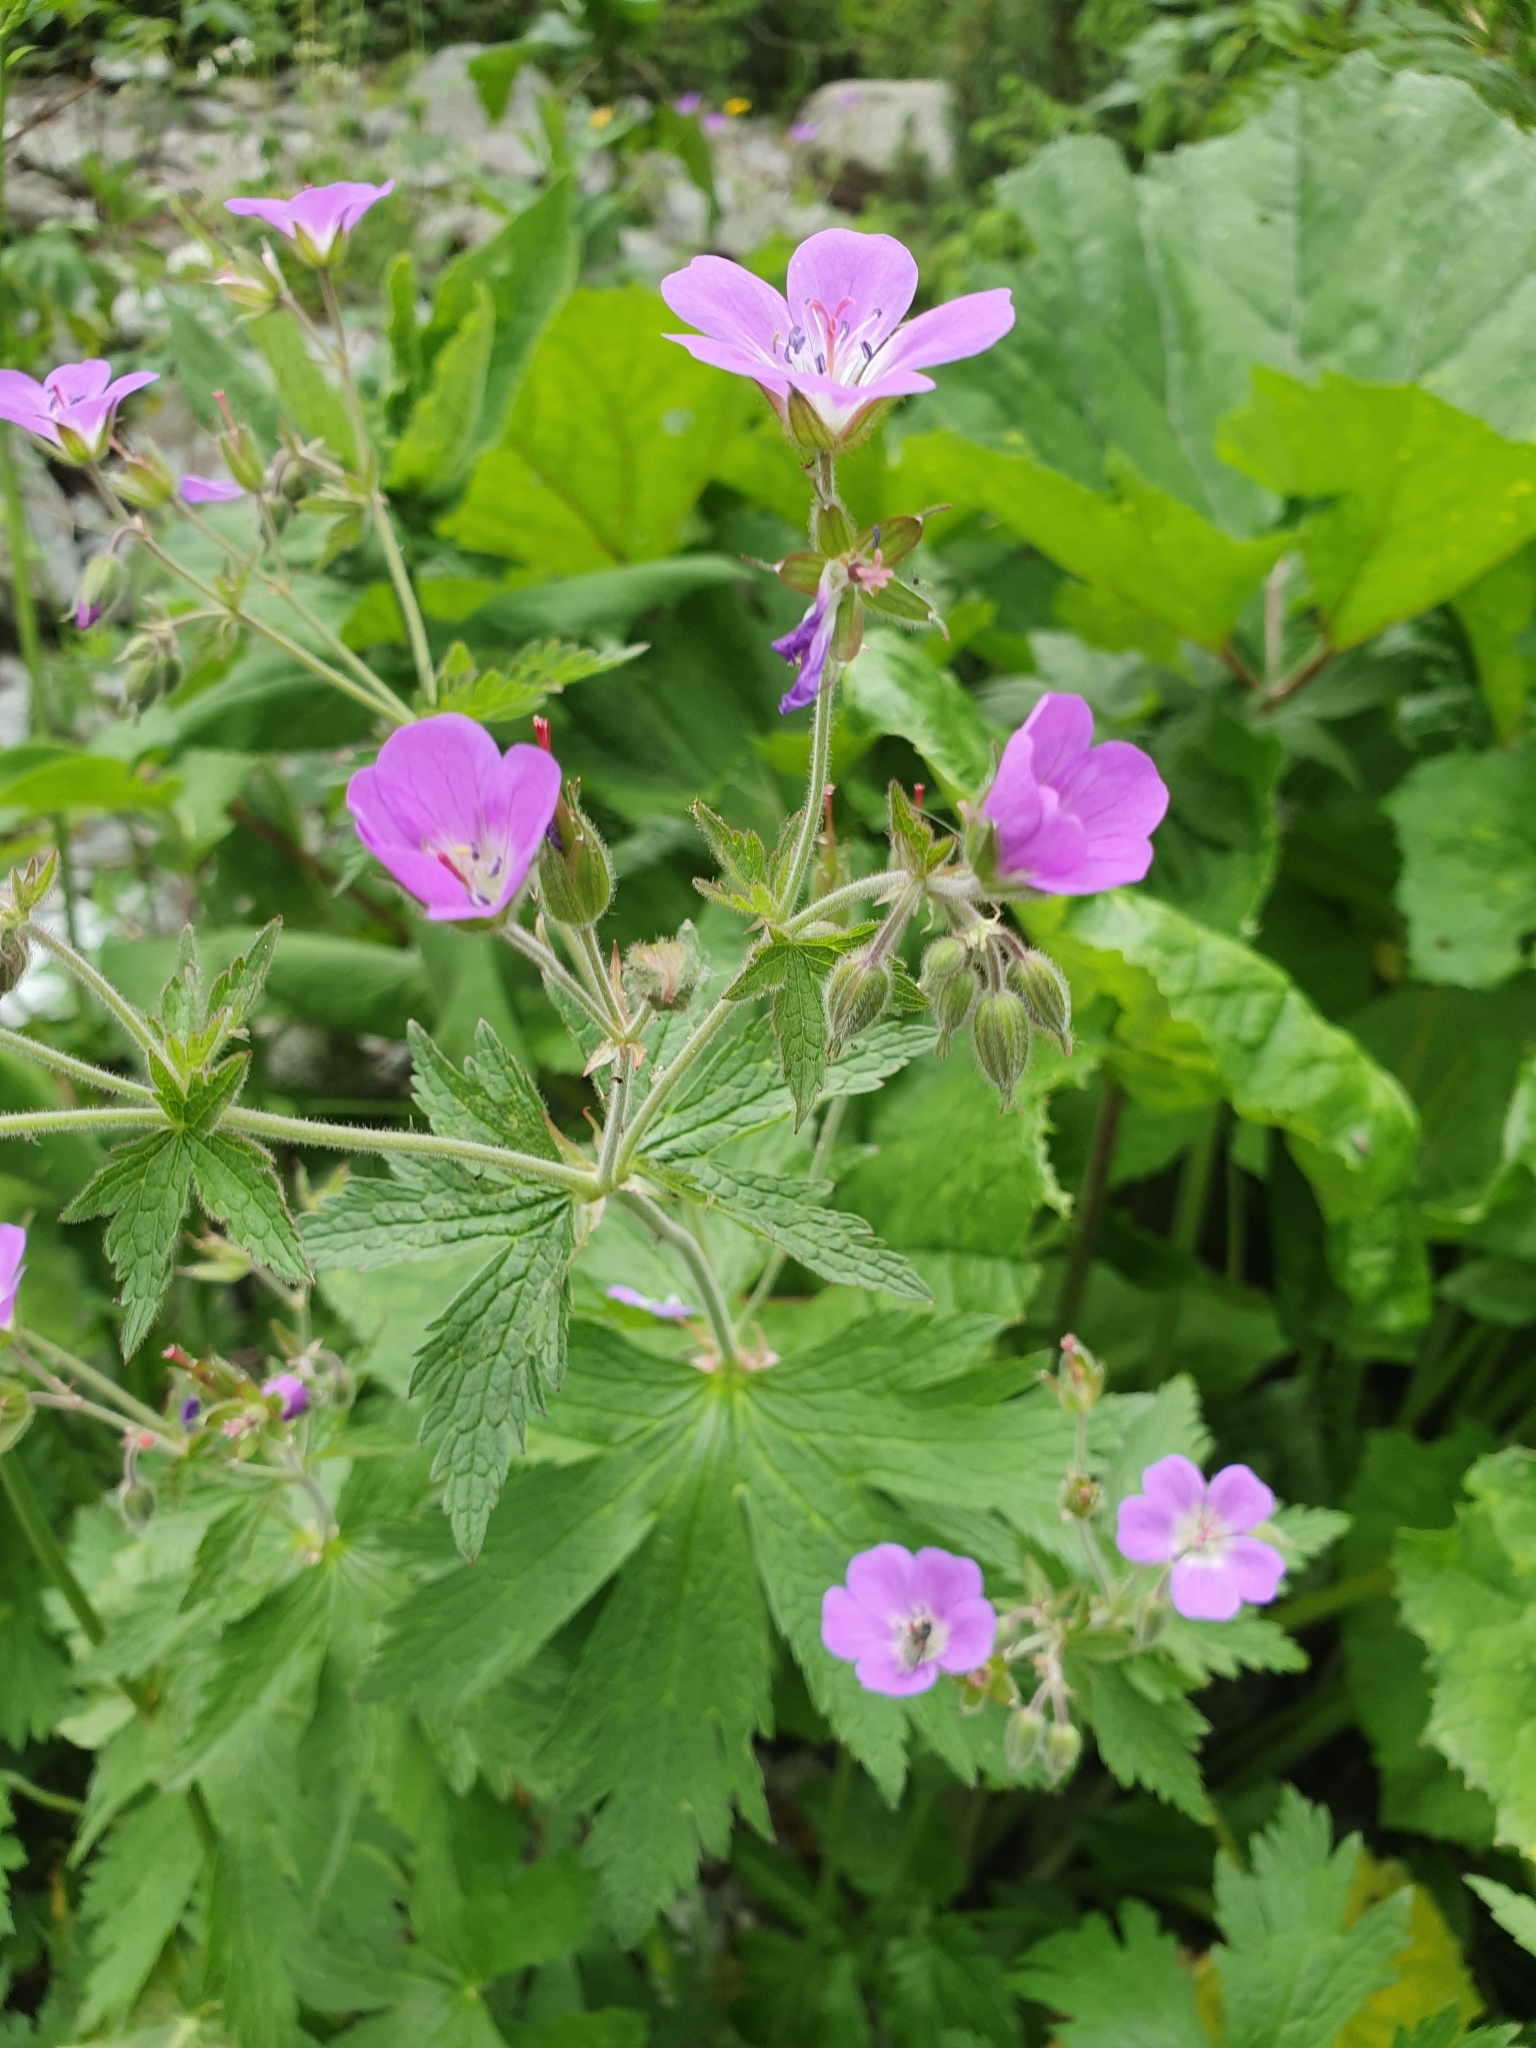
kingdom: Plantae
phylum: Tracheophyta
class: Magnoliopsida
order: Geraniales
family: Geraniaceae
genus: Geranium
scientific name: Geranium sylvaticum
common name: Wood crane's-bill
